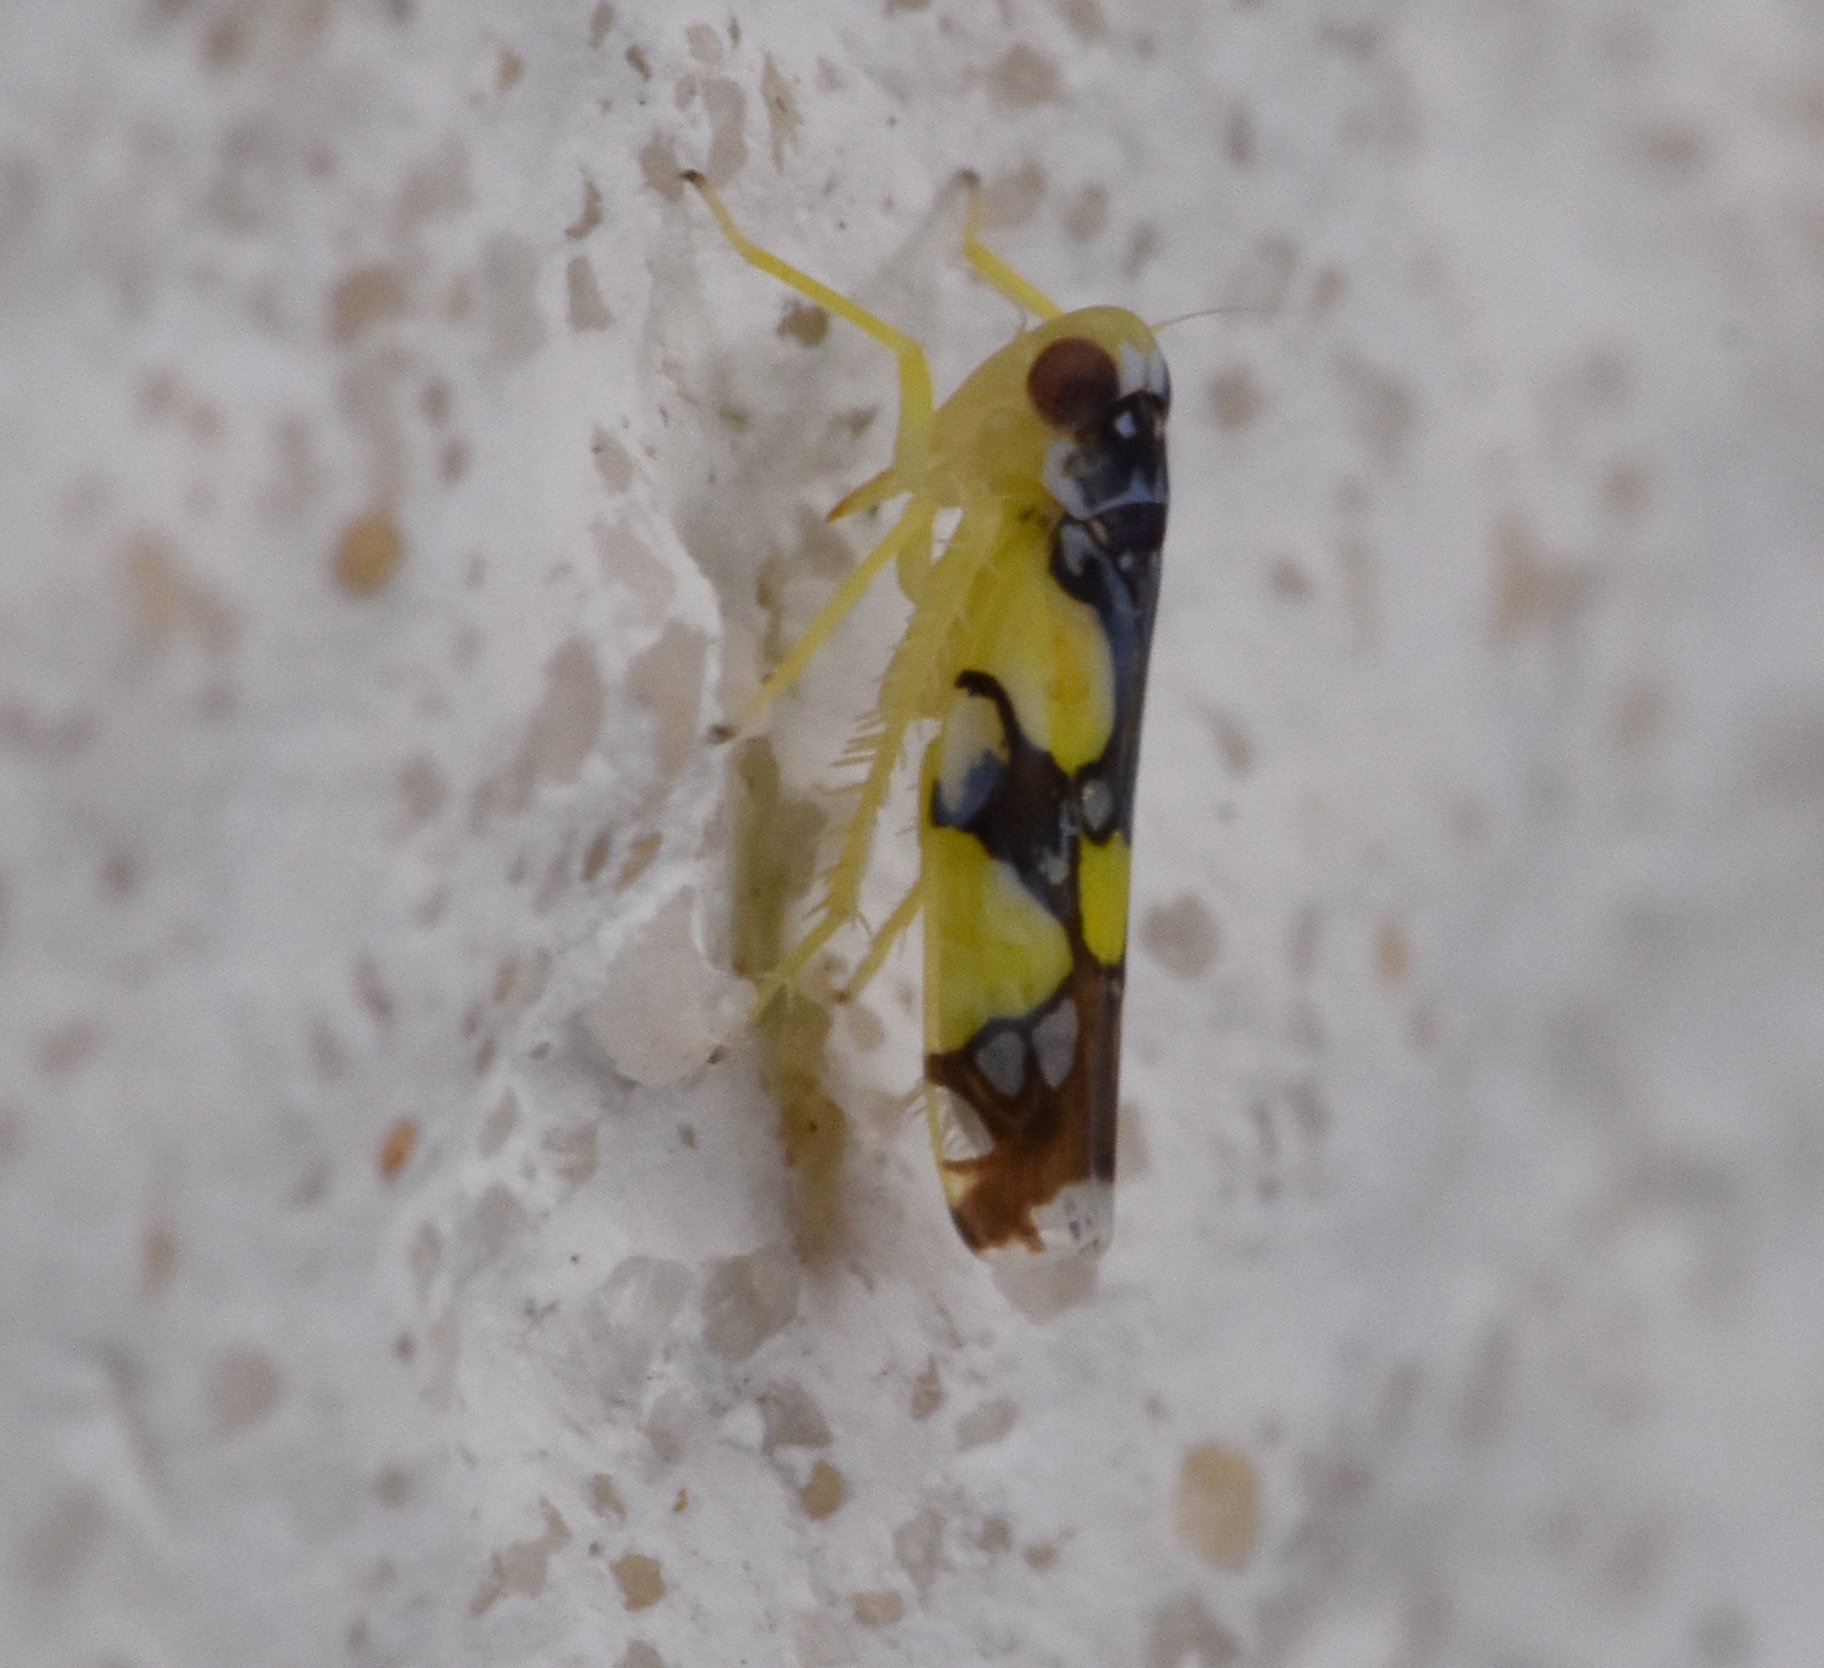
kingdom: Animalia
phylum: Arthropoda
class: Insecta
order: Hemiptera
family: Cicadellidae
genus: Protalebrella
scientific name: Protalebrella brasiliensis
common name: Brasilian leafhopper
